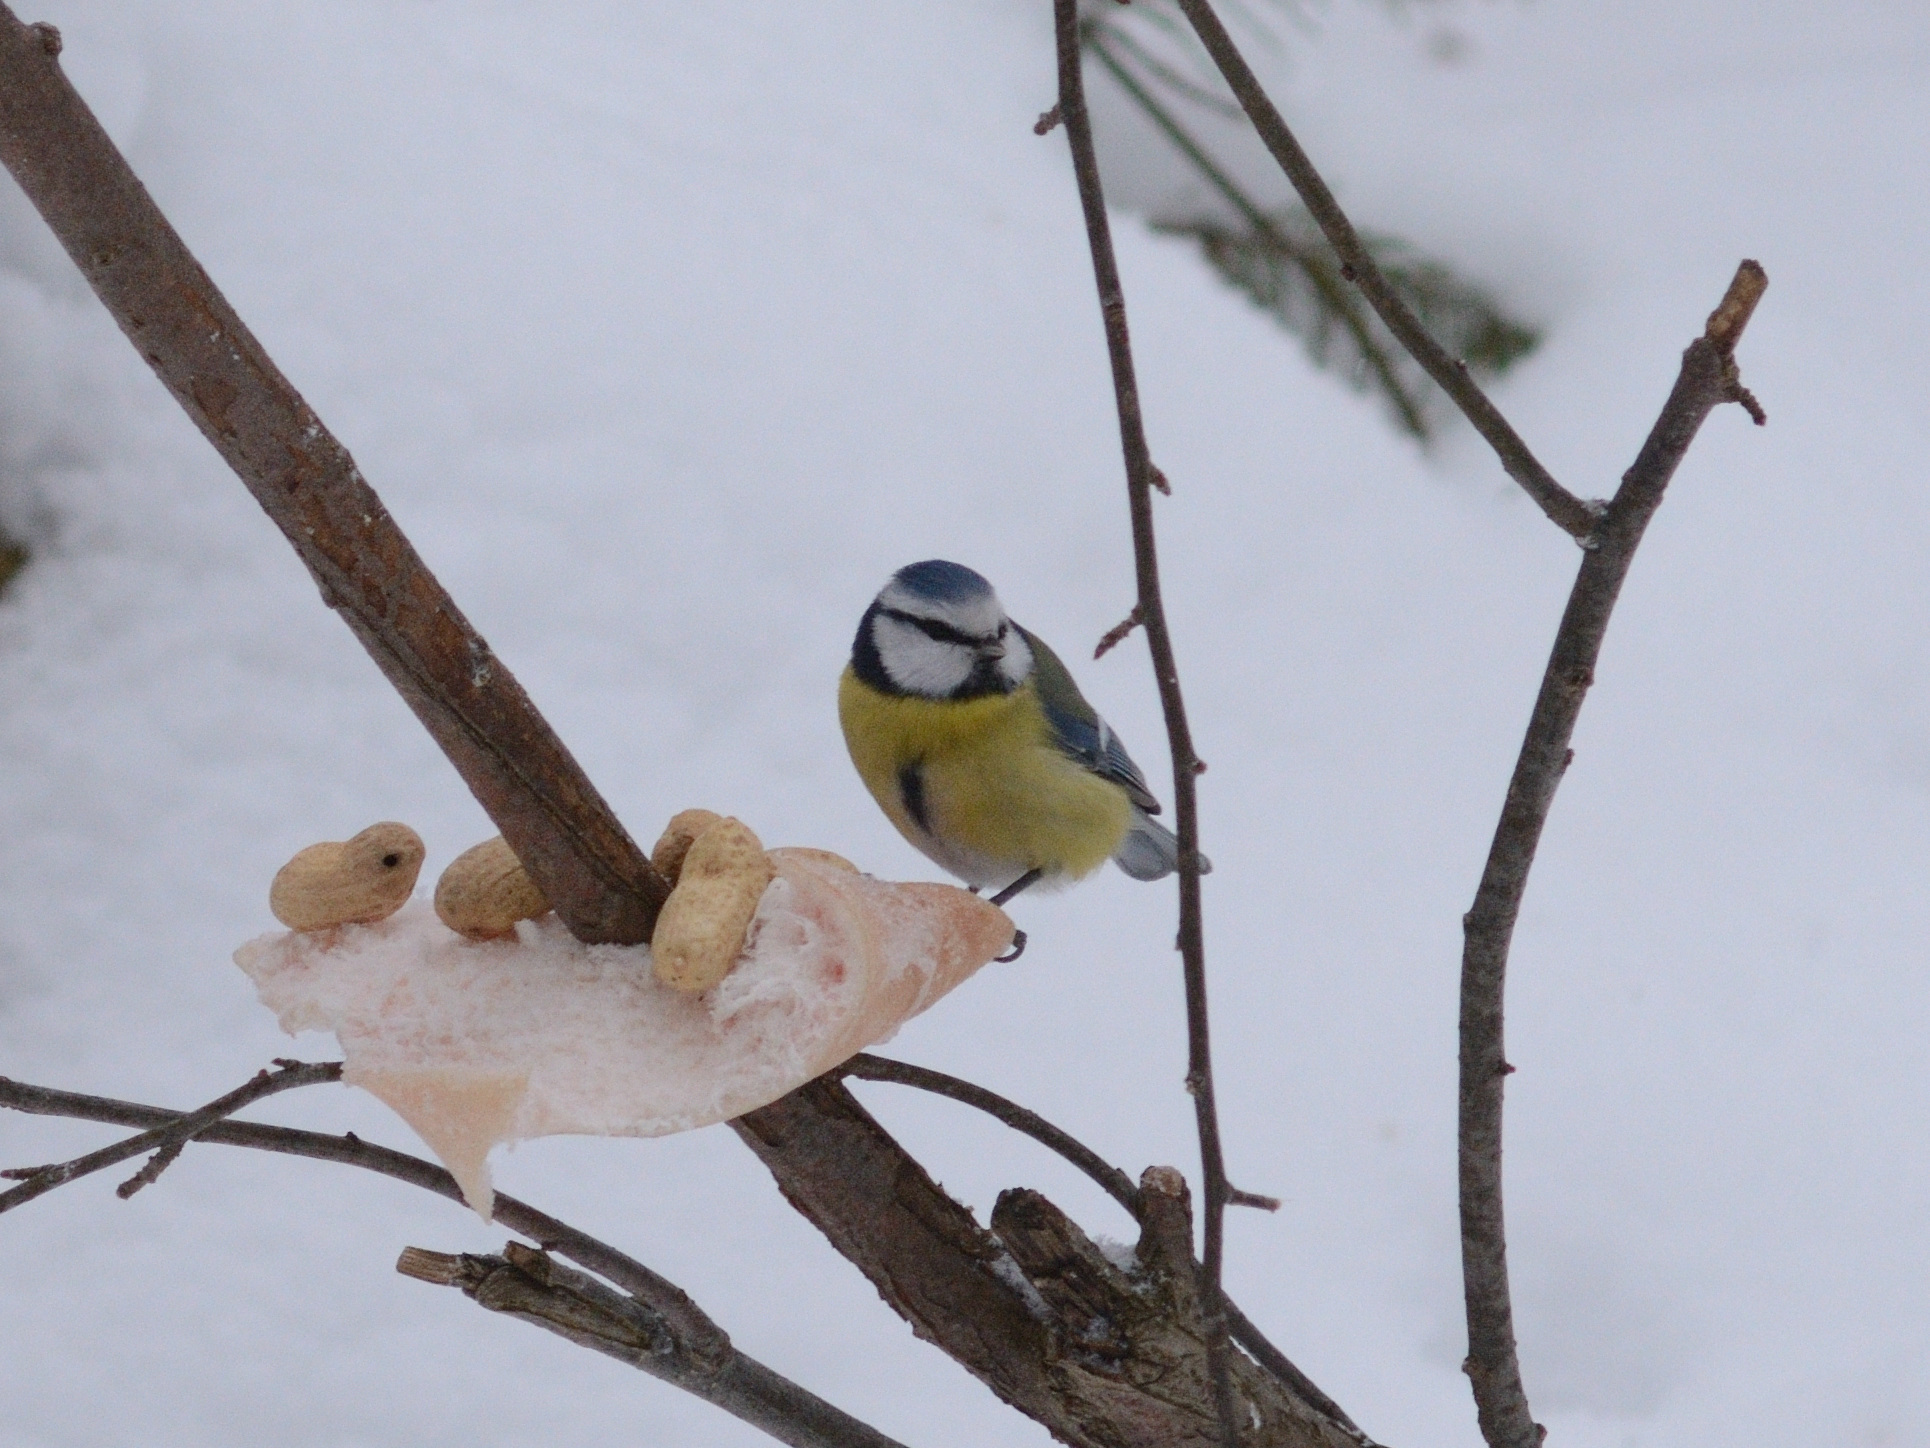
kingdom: Animalia
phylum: Chordata
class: Aves
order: Passeriformes
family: Paridae
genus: Cyanistes
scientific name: Cyanistes caeruleus
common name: Eurasian blue tit
